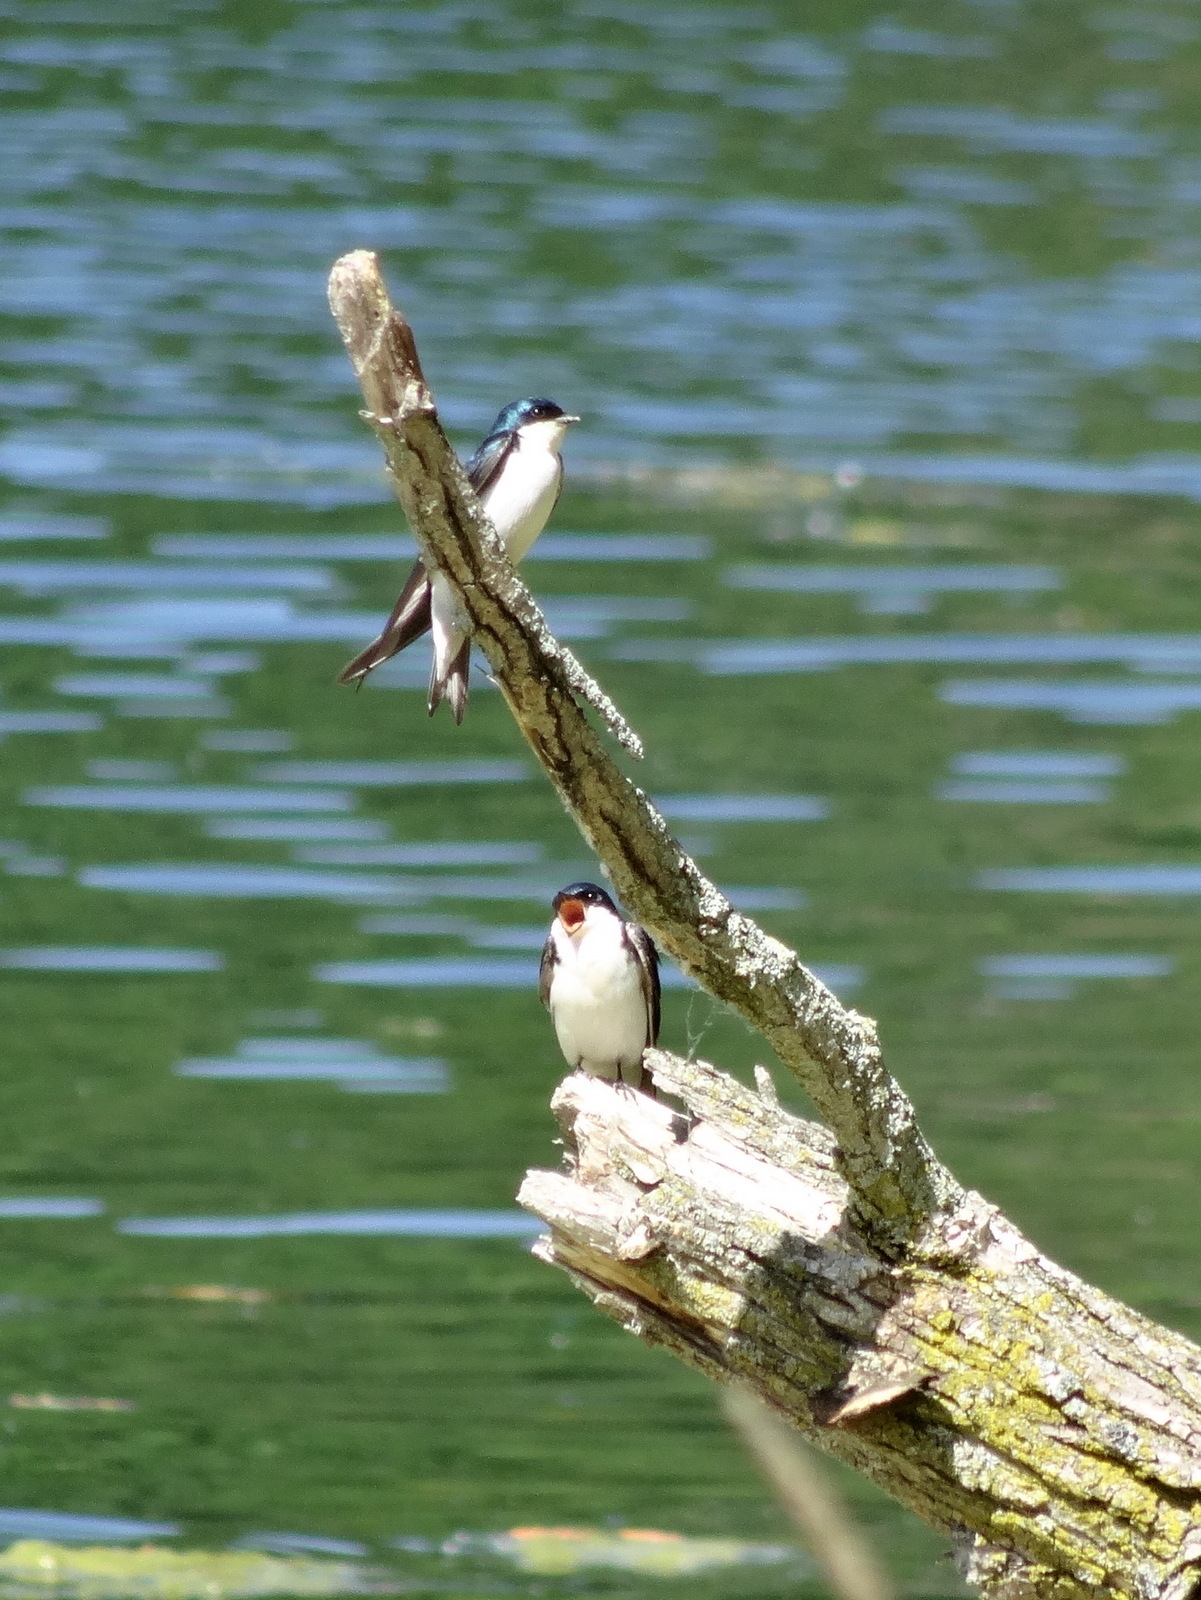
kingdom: Animalia
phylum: Chordata
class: Aves
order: Passeriformes
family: Hirundinidae
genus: Tachycineta
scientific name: Tachycineta bicolor
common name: Tree swallow
